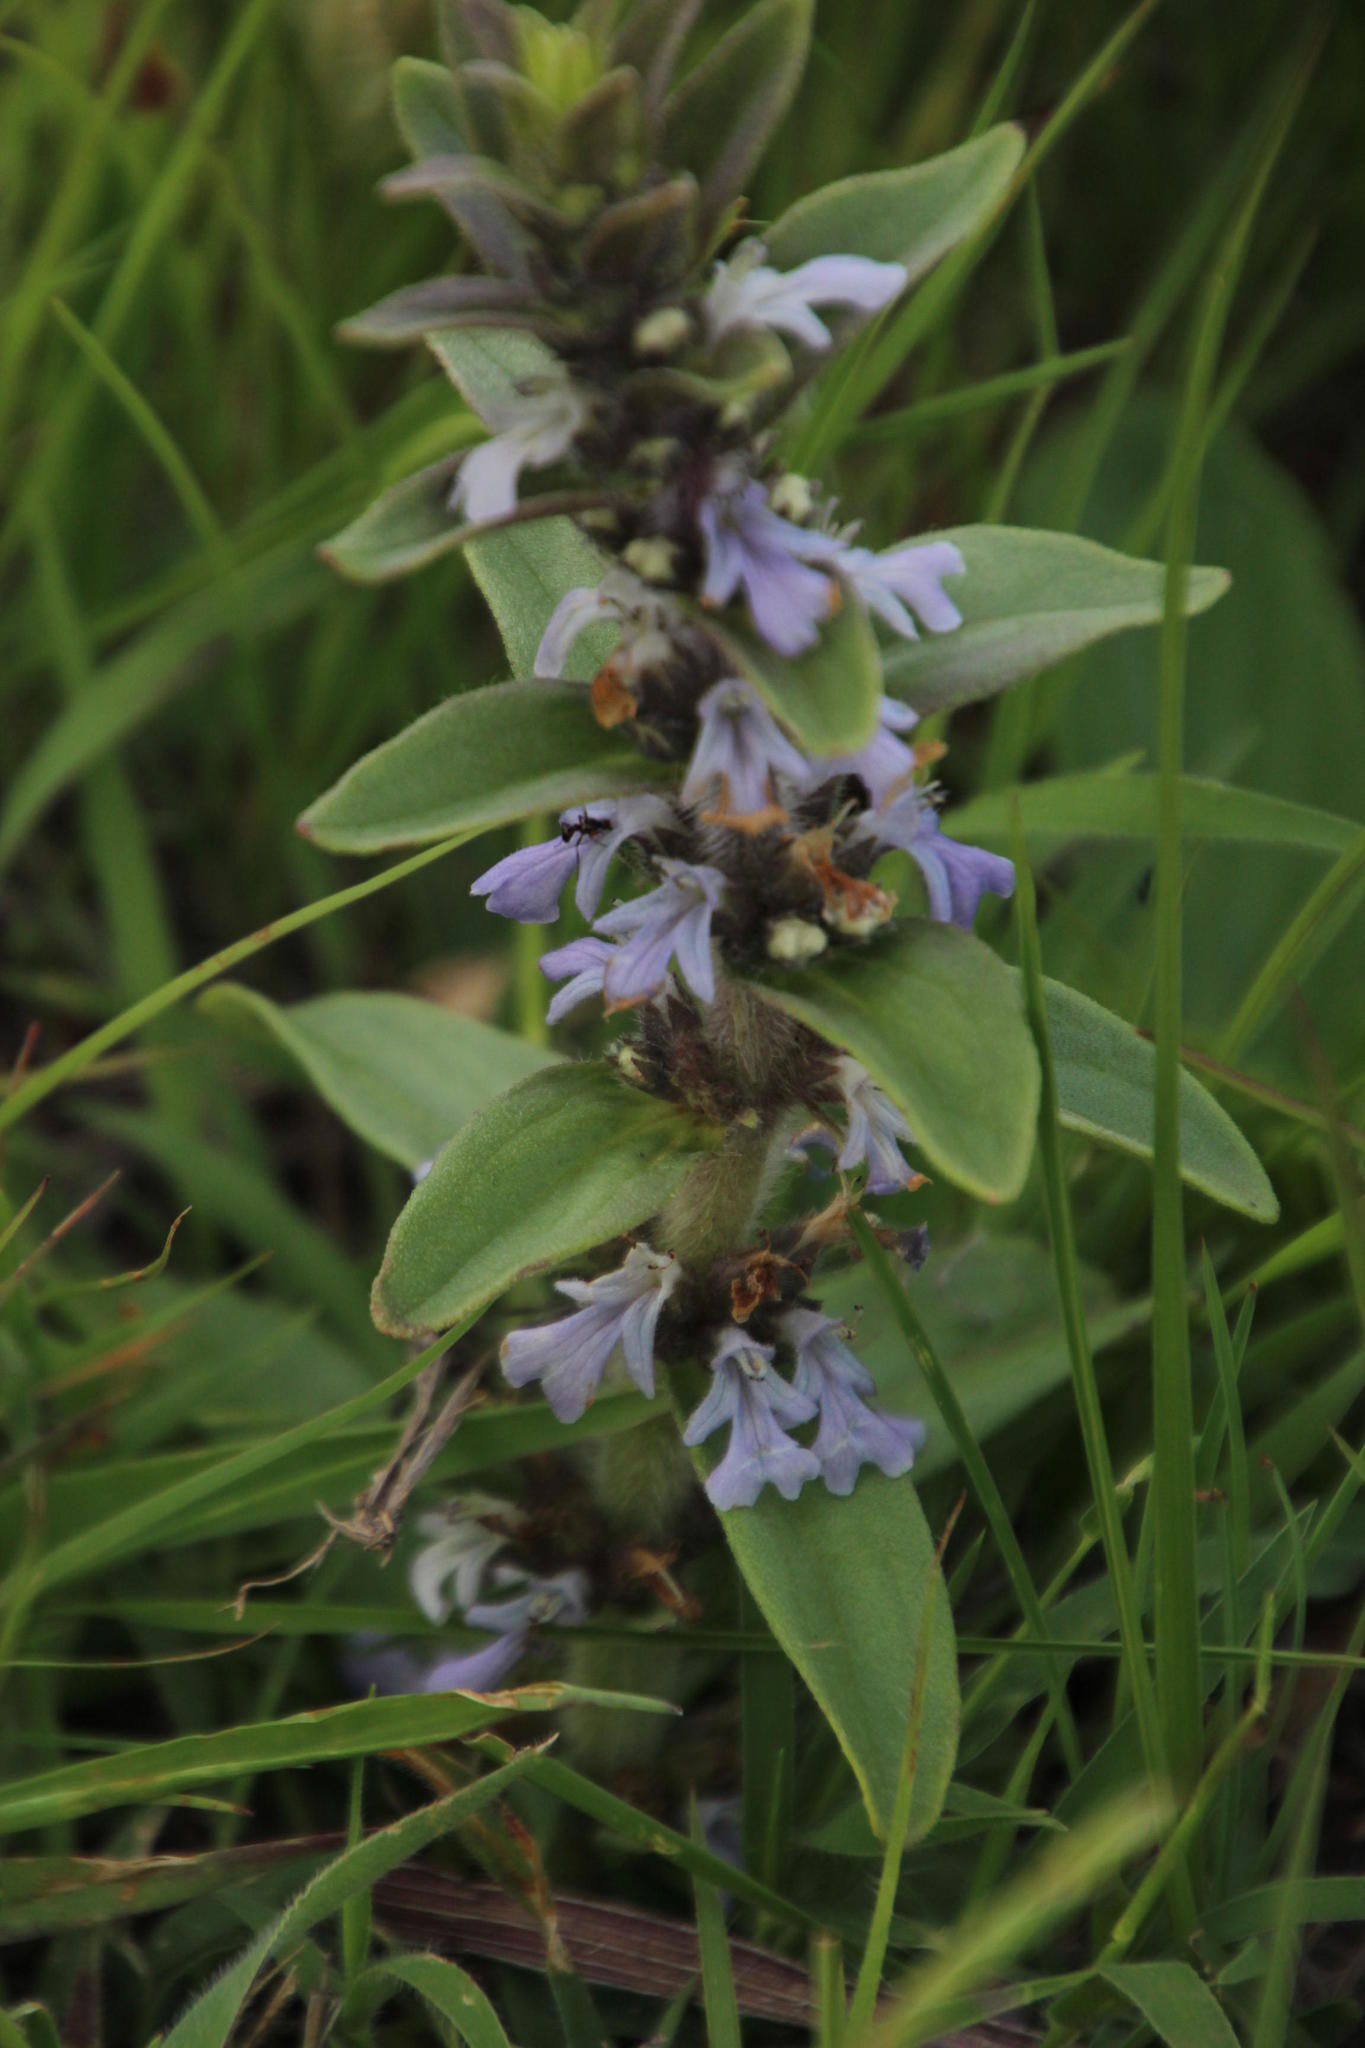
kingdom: Plantae
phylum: Tracheophyta
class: Magnoliopsida
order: Lamiales
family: Lamiaceae
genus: Ajuga
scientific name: Ajuga ophrydis
